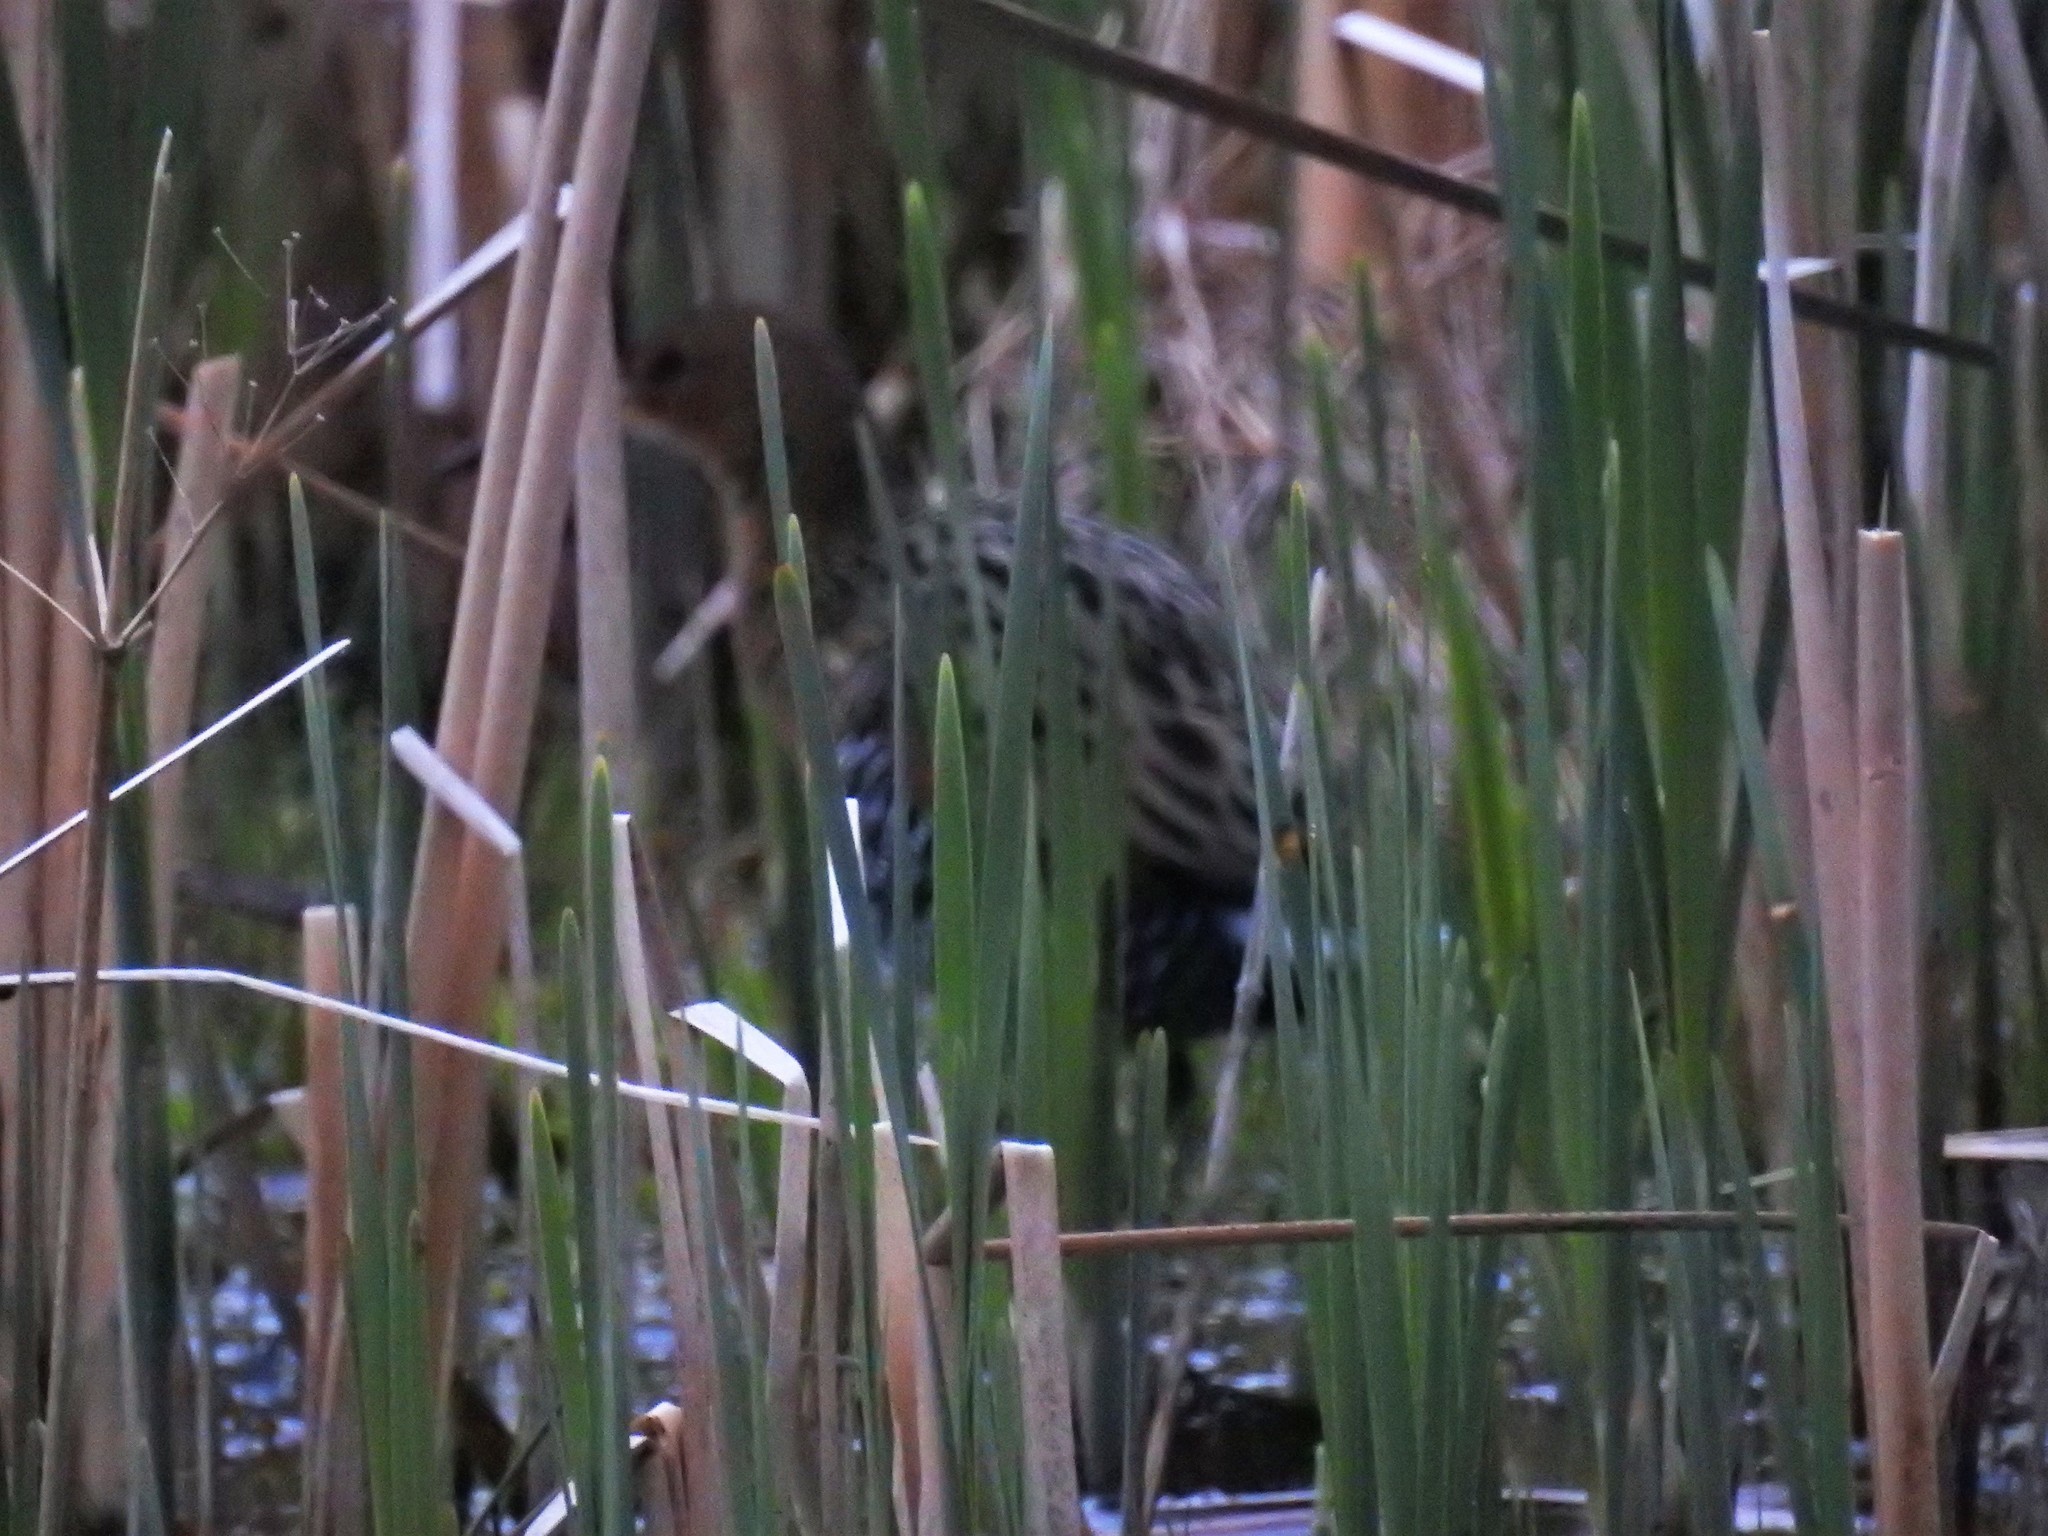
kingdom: Animalia
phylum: Chordata
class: Aves
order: Gruiformes
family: Rallidae
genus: Rallus
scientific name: Rallus elegans
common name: King rail
